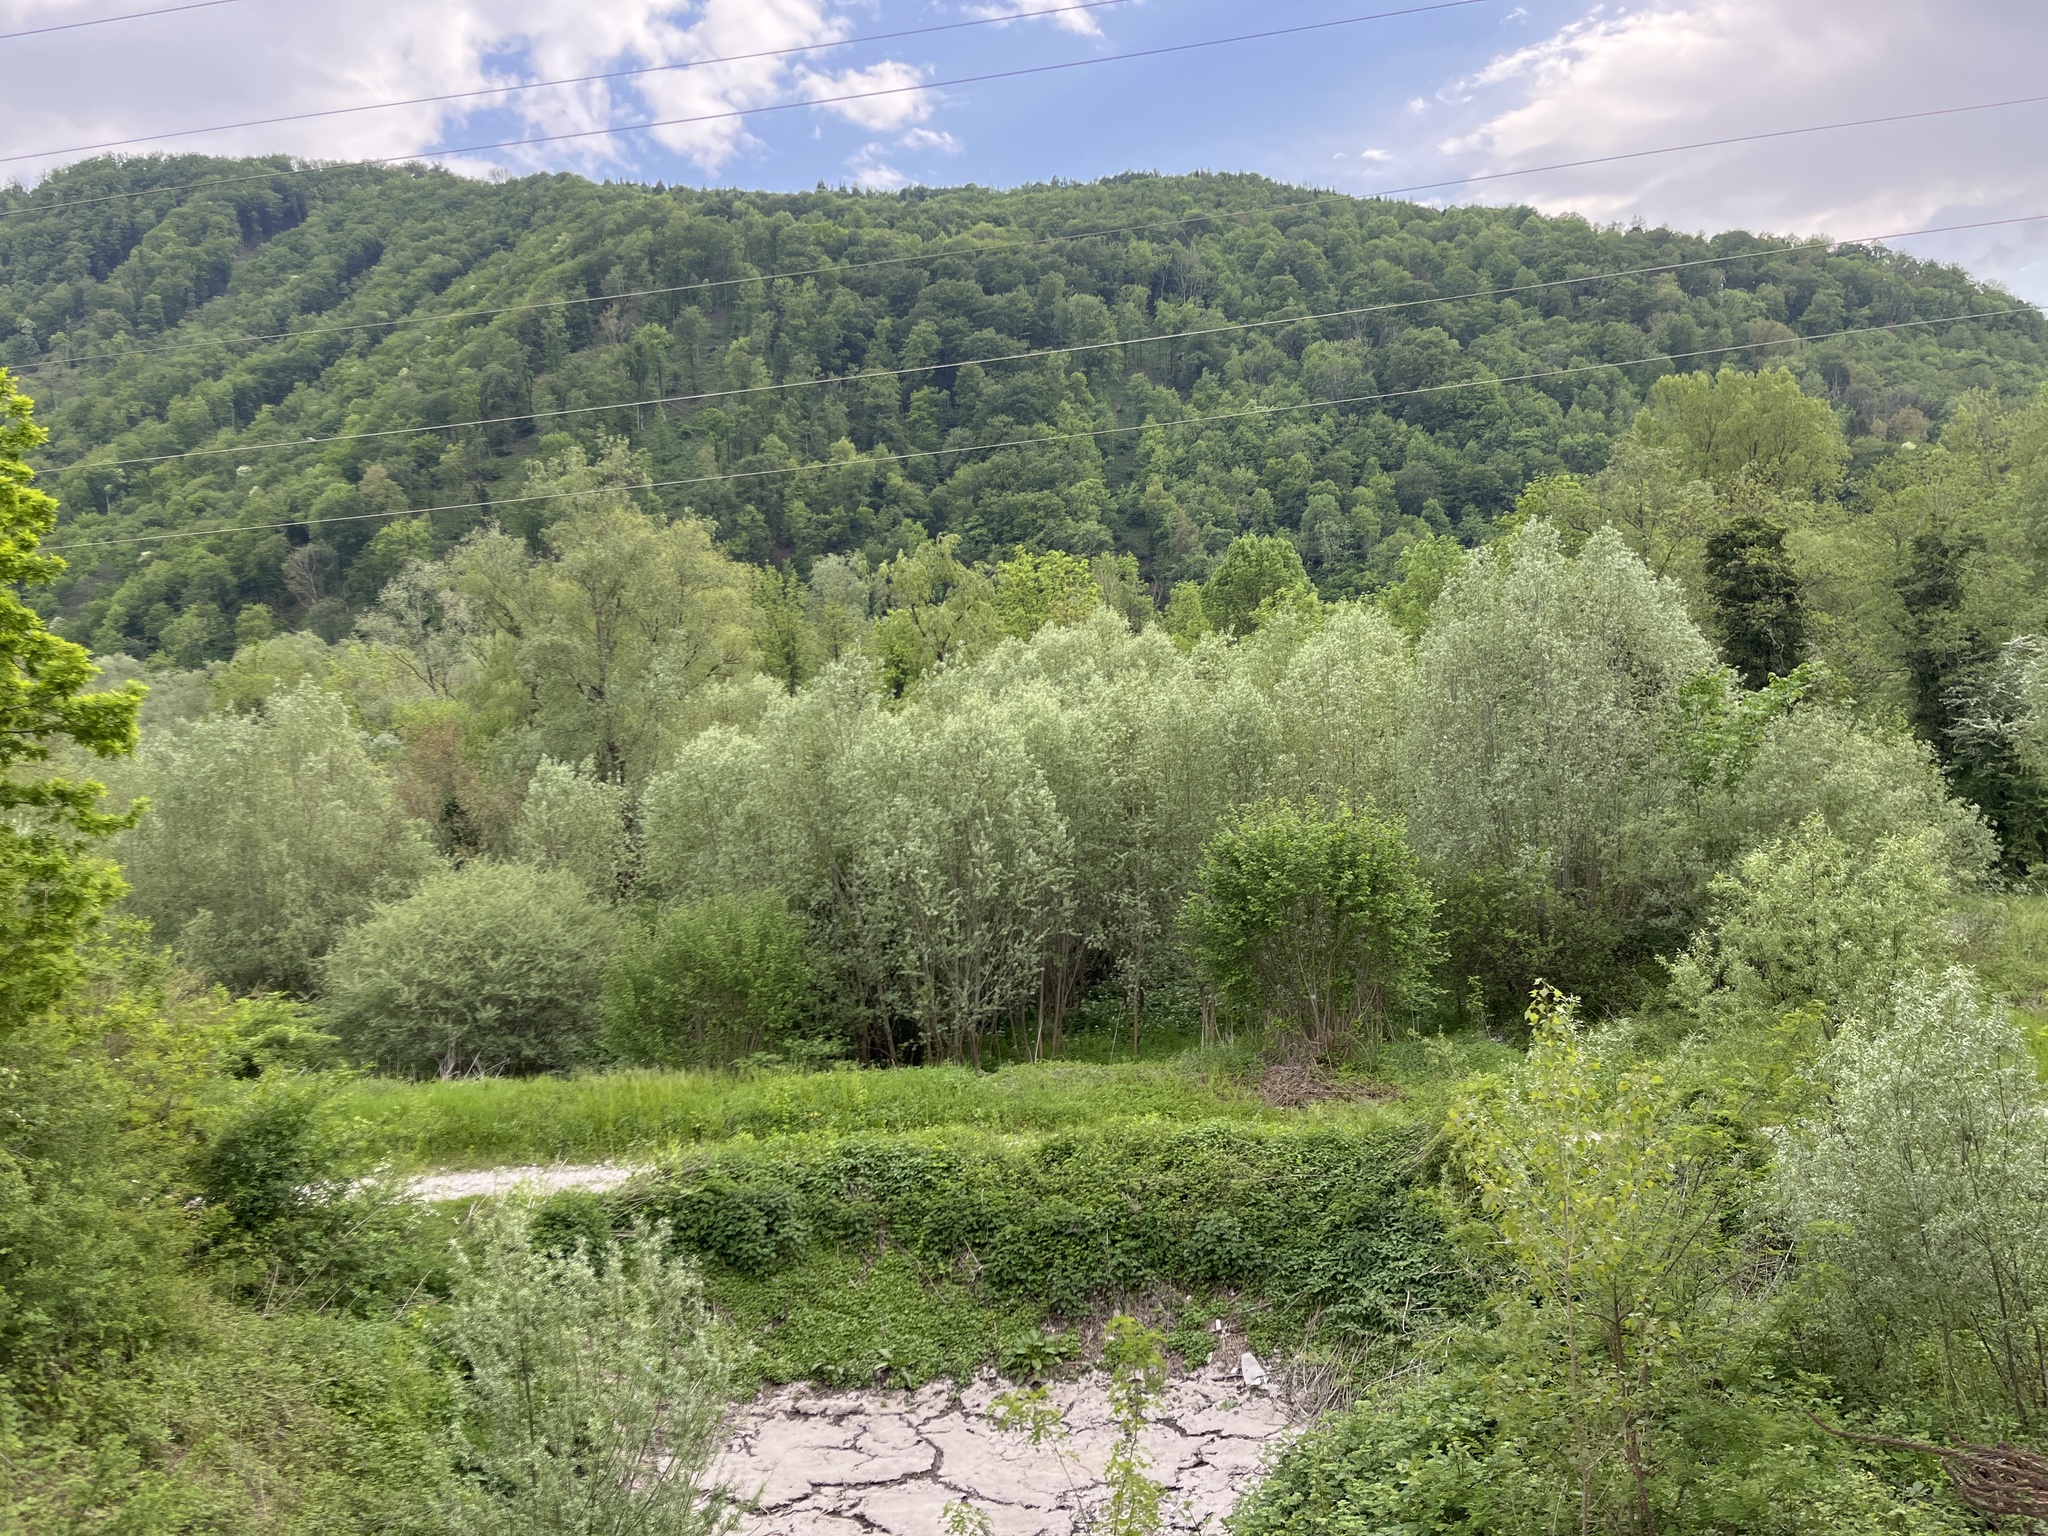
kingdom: Plantae
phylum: Tracheophyta
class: Magnoliopsida
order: Malpighiales
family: Salicaceae
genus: Salix
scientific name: Salix alba
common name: White willow
